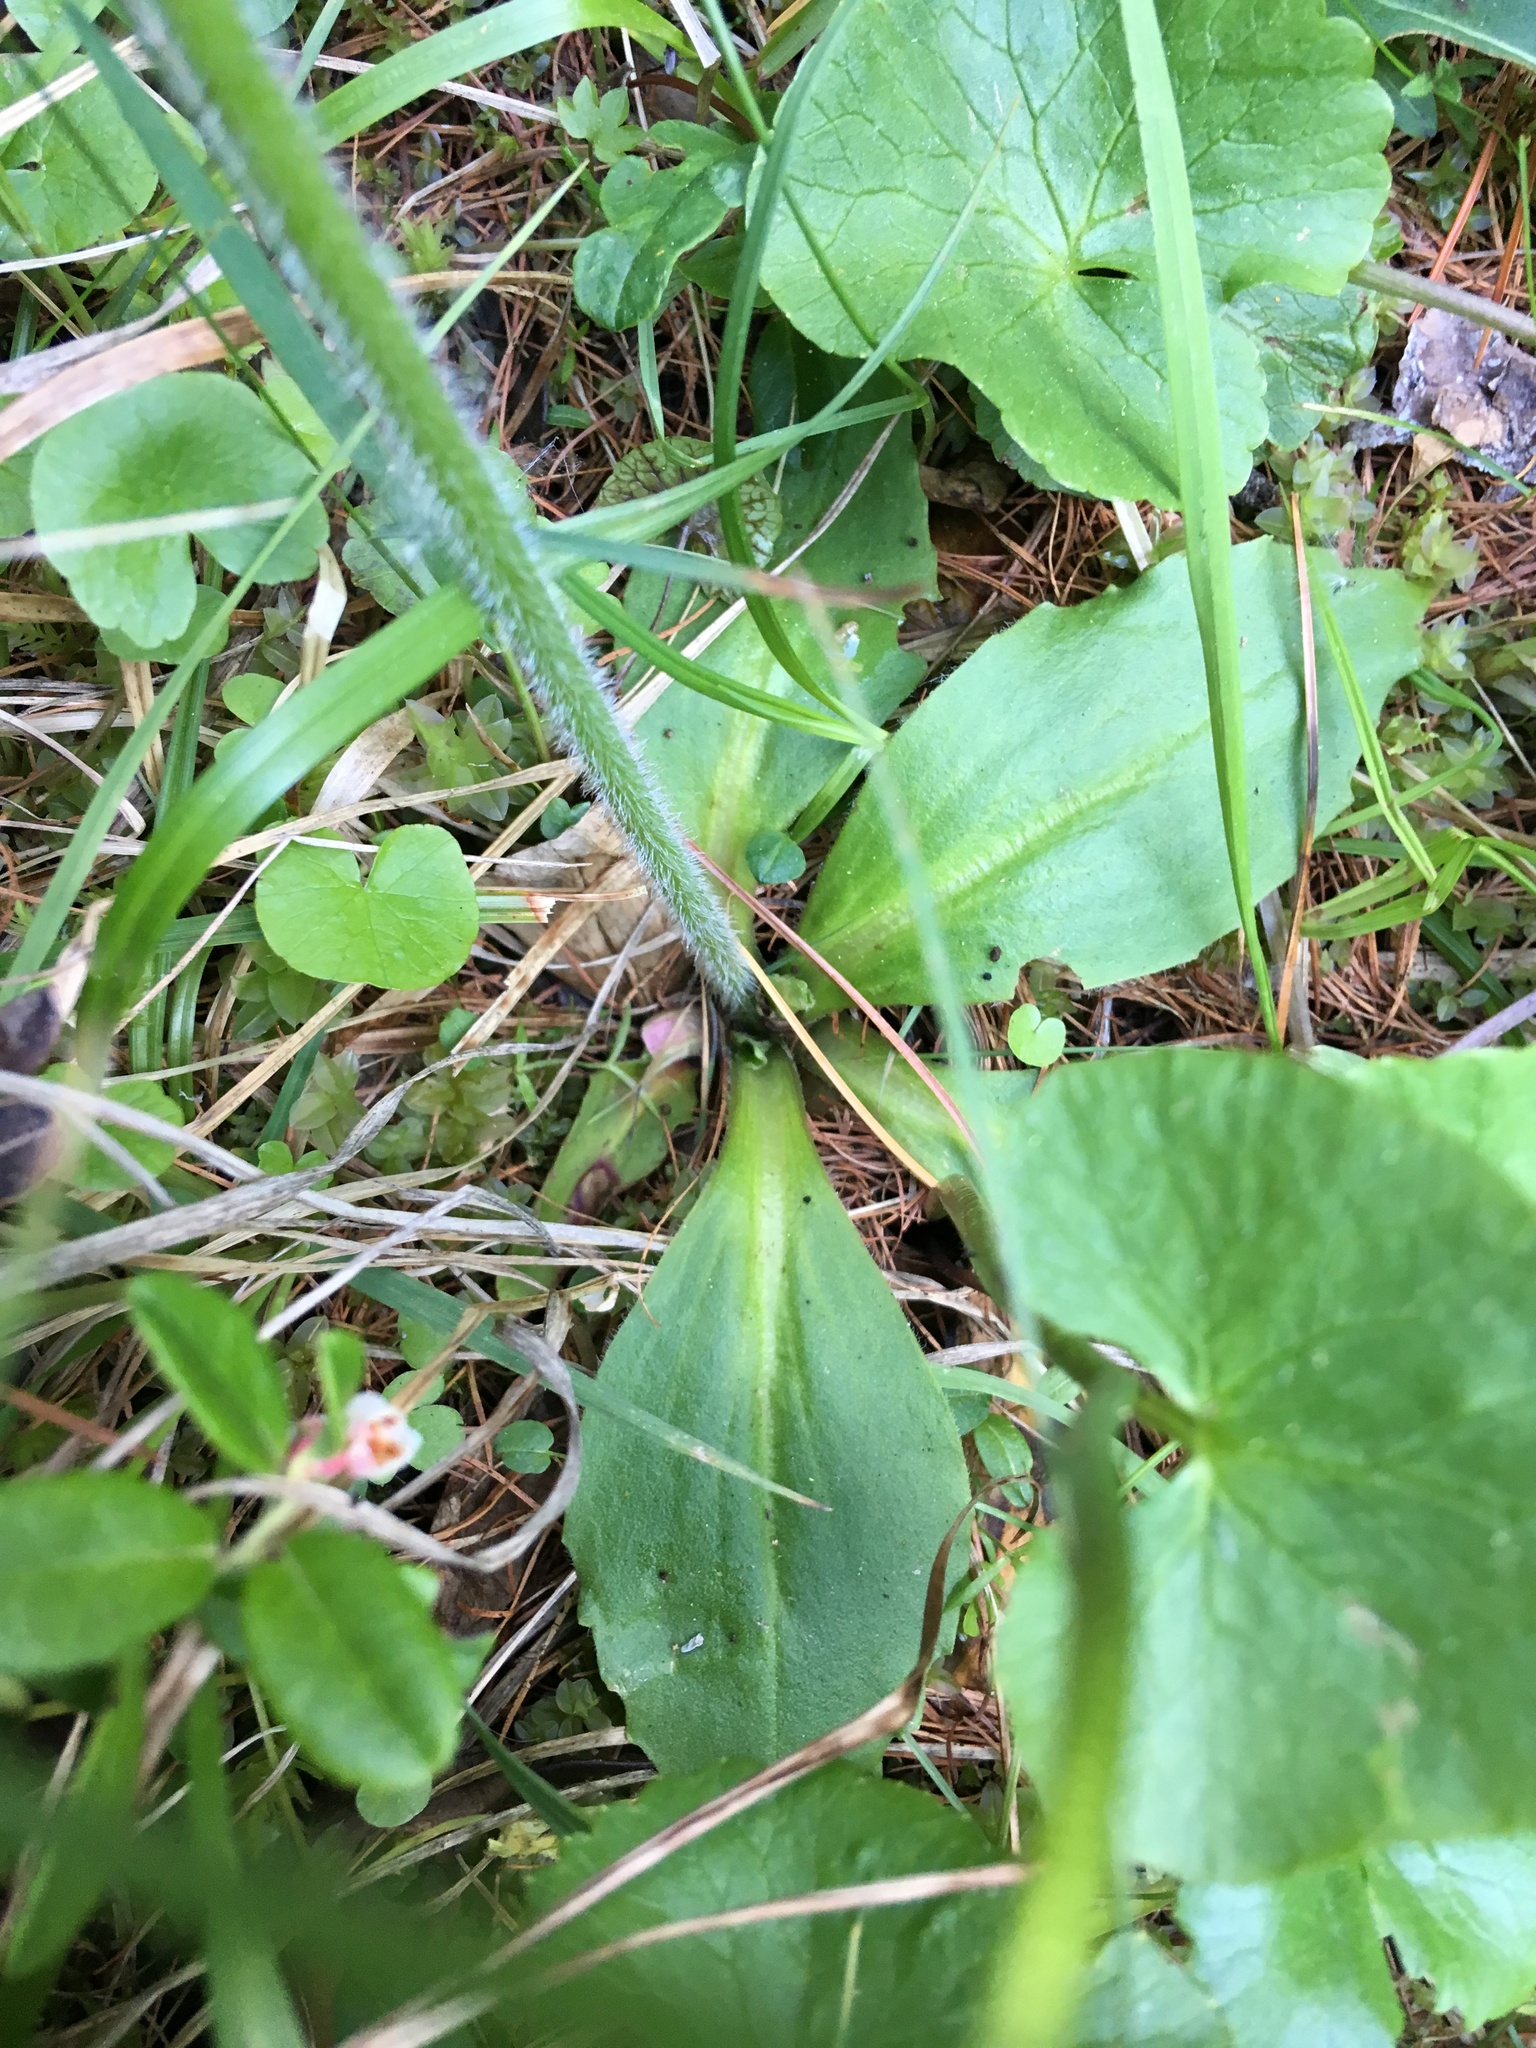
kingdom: Plantae
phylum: Tracheophyta
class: Magnoliopsida
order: Saxifragales
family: Saxifragaceae
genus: Micranthes
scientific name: Micranthes hieraciifolia
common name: Hawkweed-leaved saxifrage
